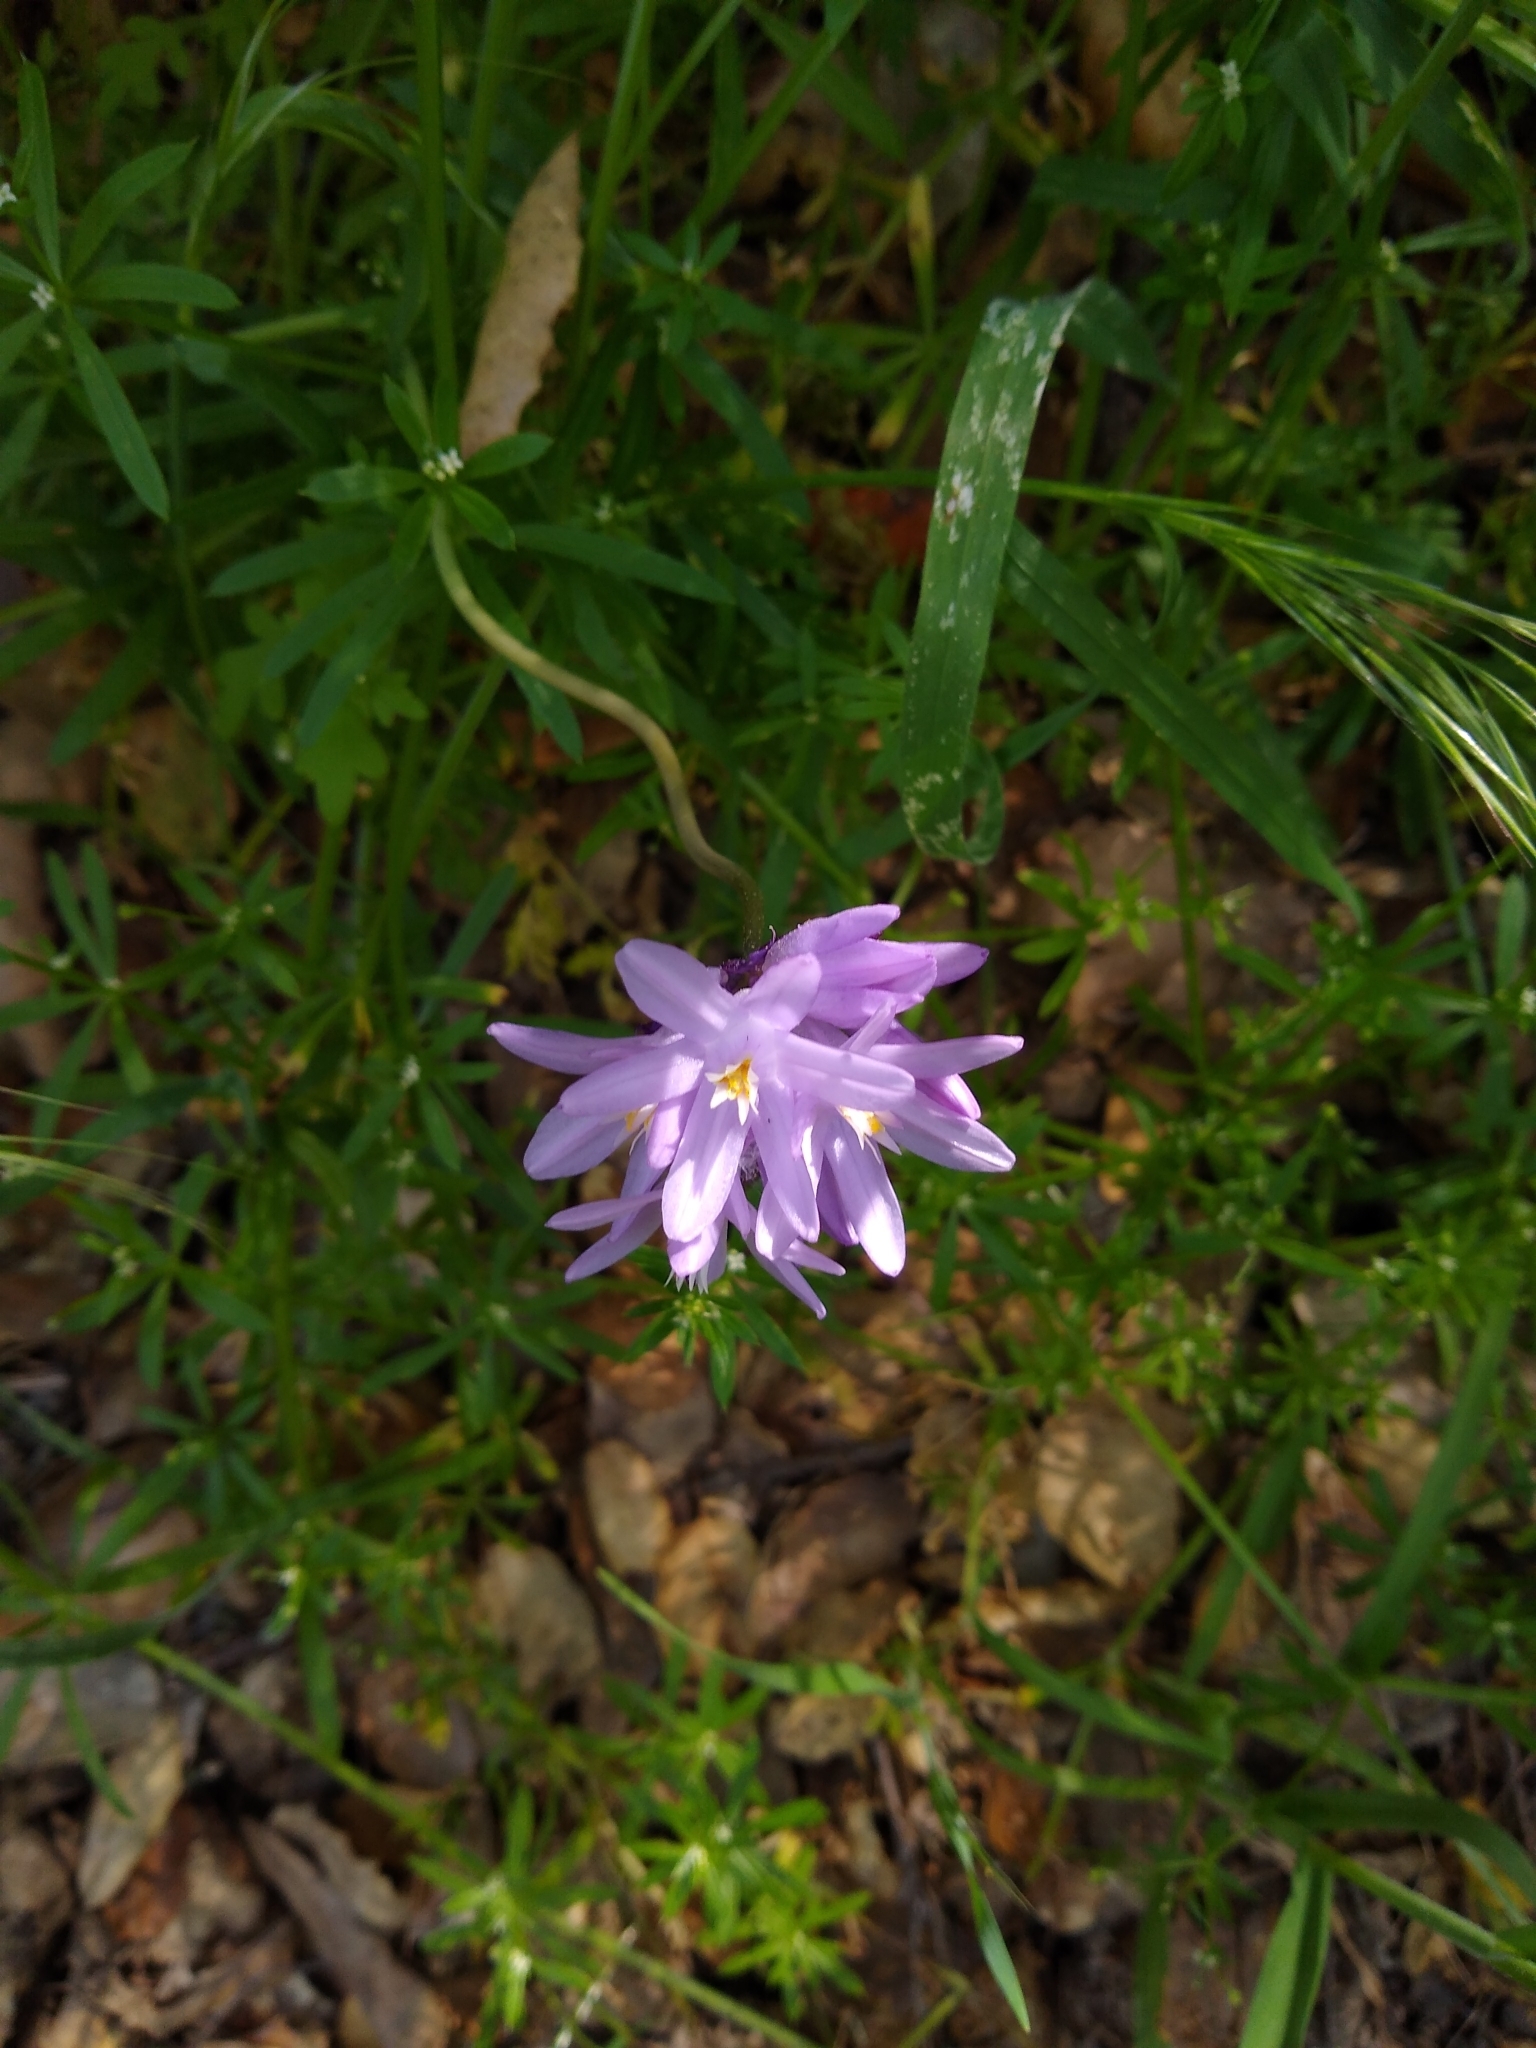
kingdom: Plantae
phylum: Tracheophyta
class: Liliopsida
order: Asparagales
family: Asparagaceae
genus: Dipterostemon
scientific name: Dipterostemon capitatus
